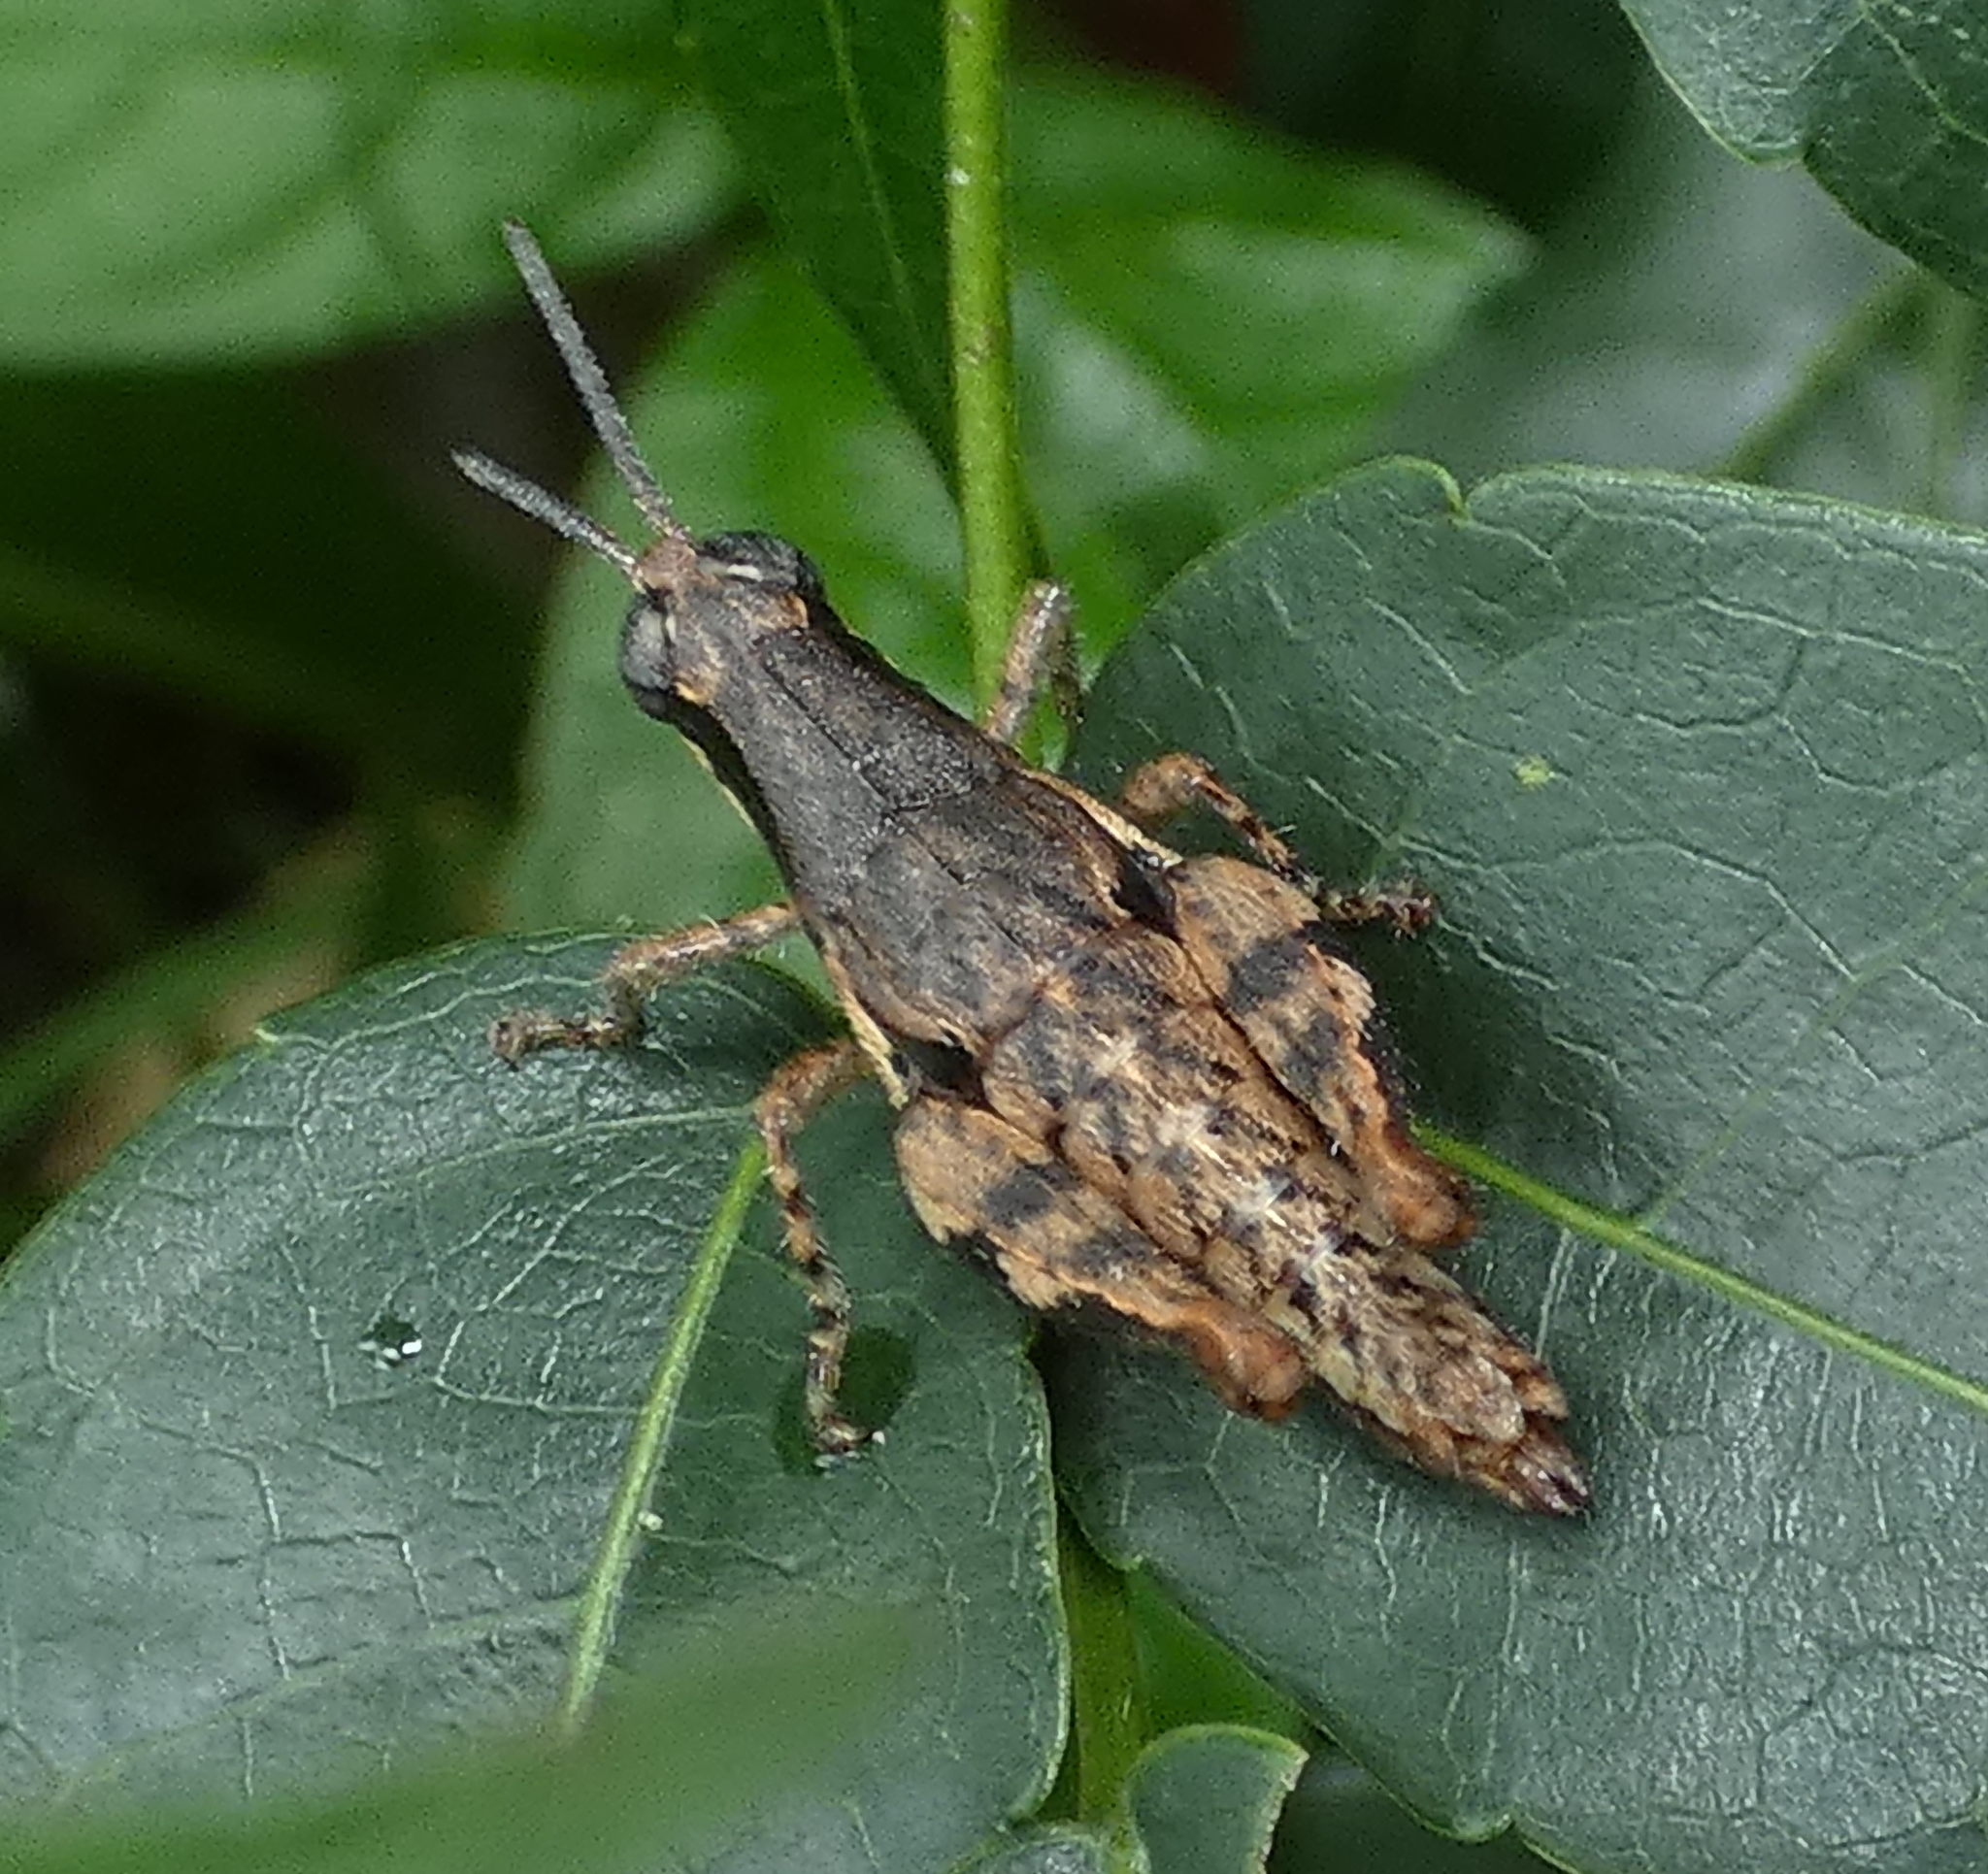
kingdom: Animalia
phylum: Arthropoda
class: Insecta
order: Orthoptera
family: Acrididae
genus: Eujivarus
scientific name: Eujivarus meridionalis
